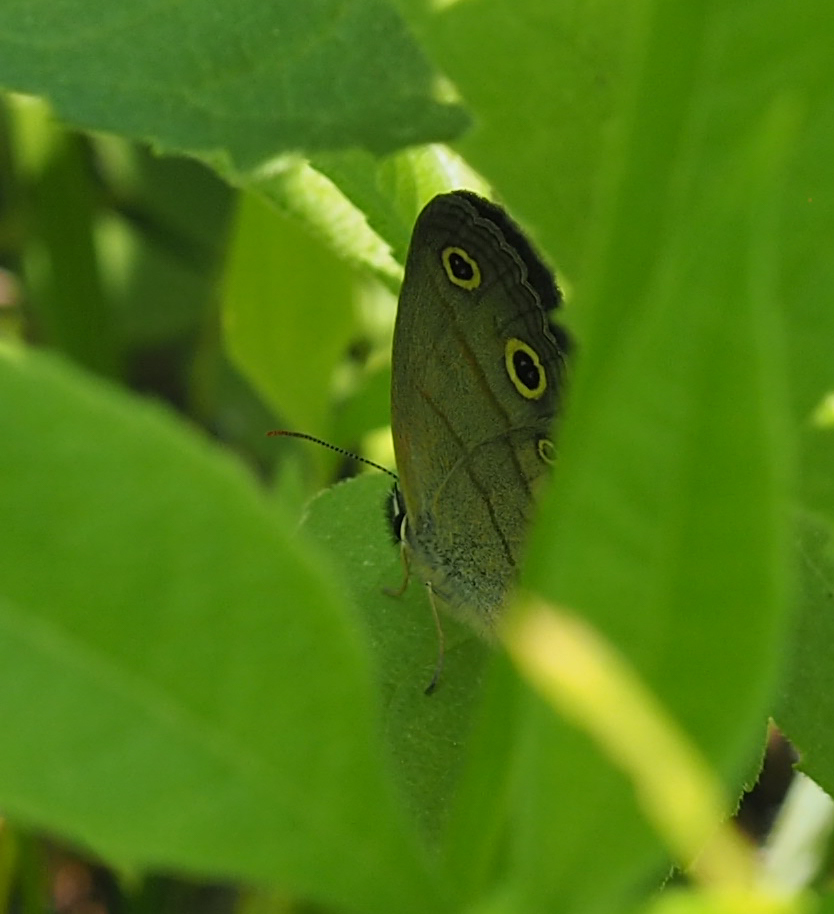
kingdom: Animalia
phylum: Arthropoda
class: Insecta
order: Lepidoptera
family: Nymphalidae
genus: Euptychia
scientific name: Euptychia cymela
